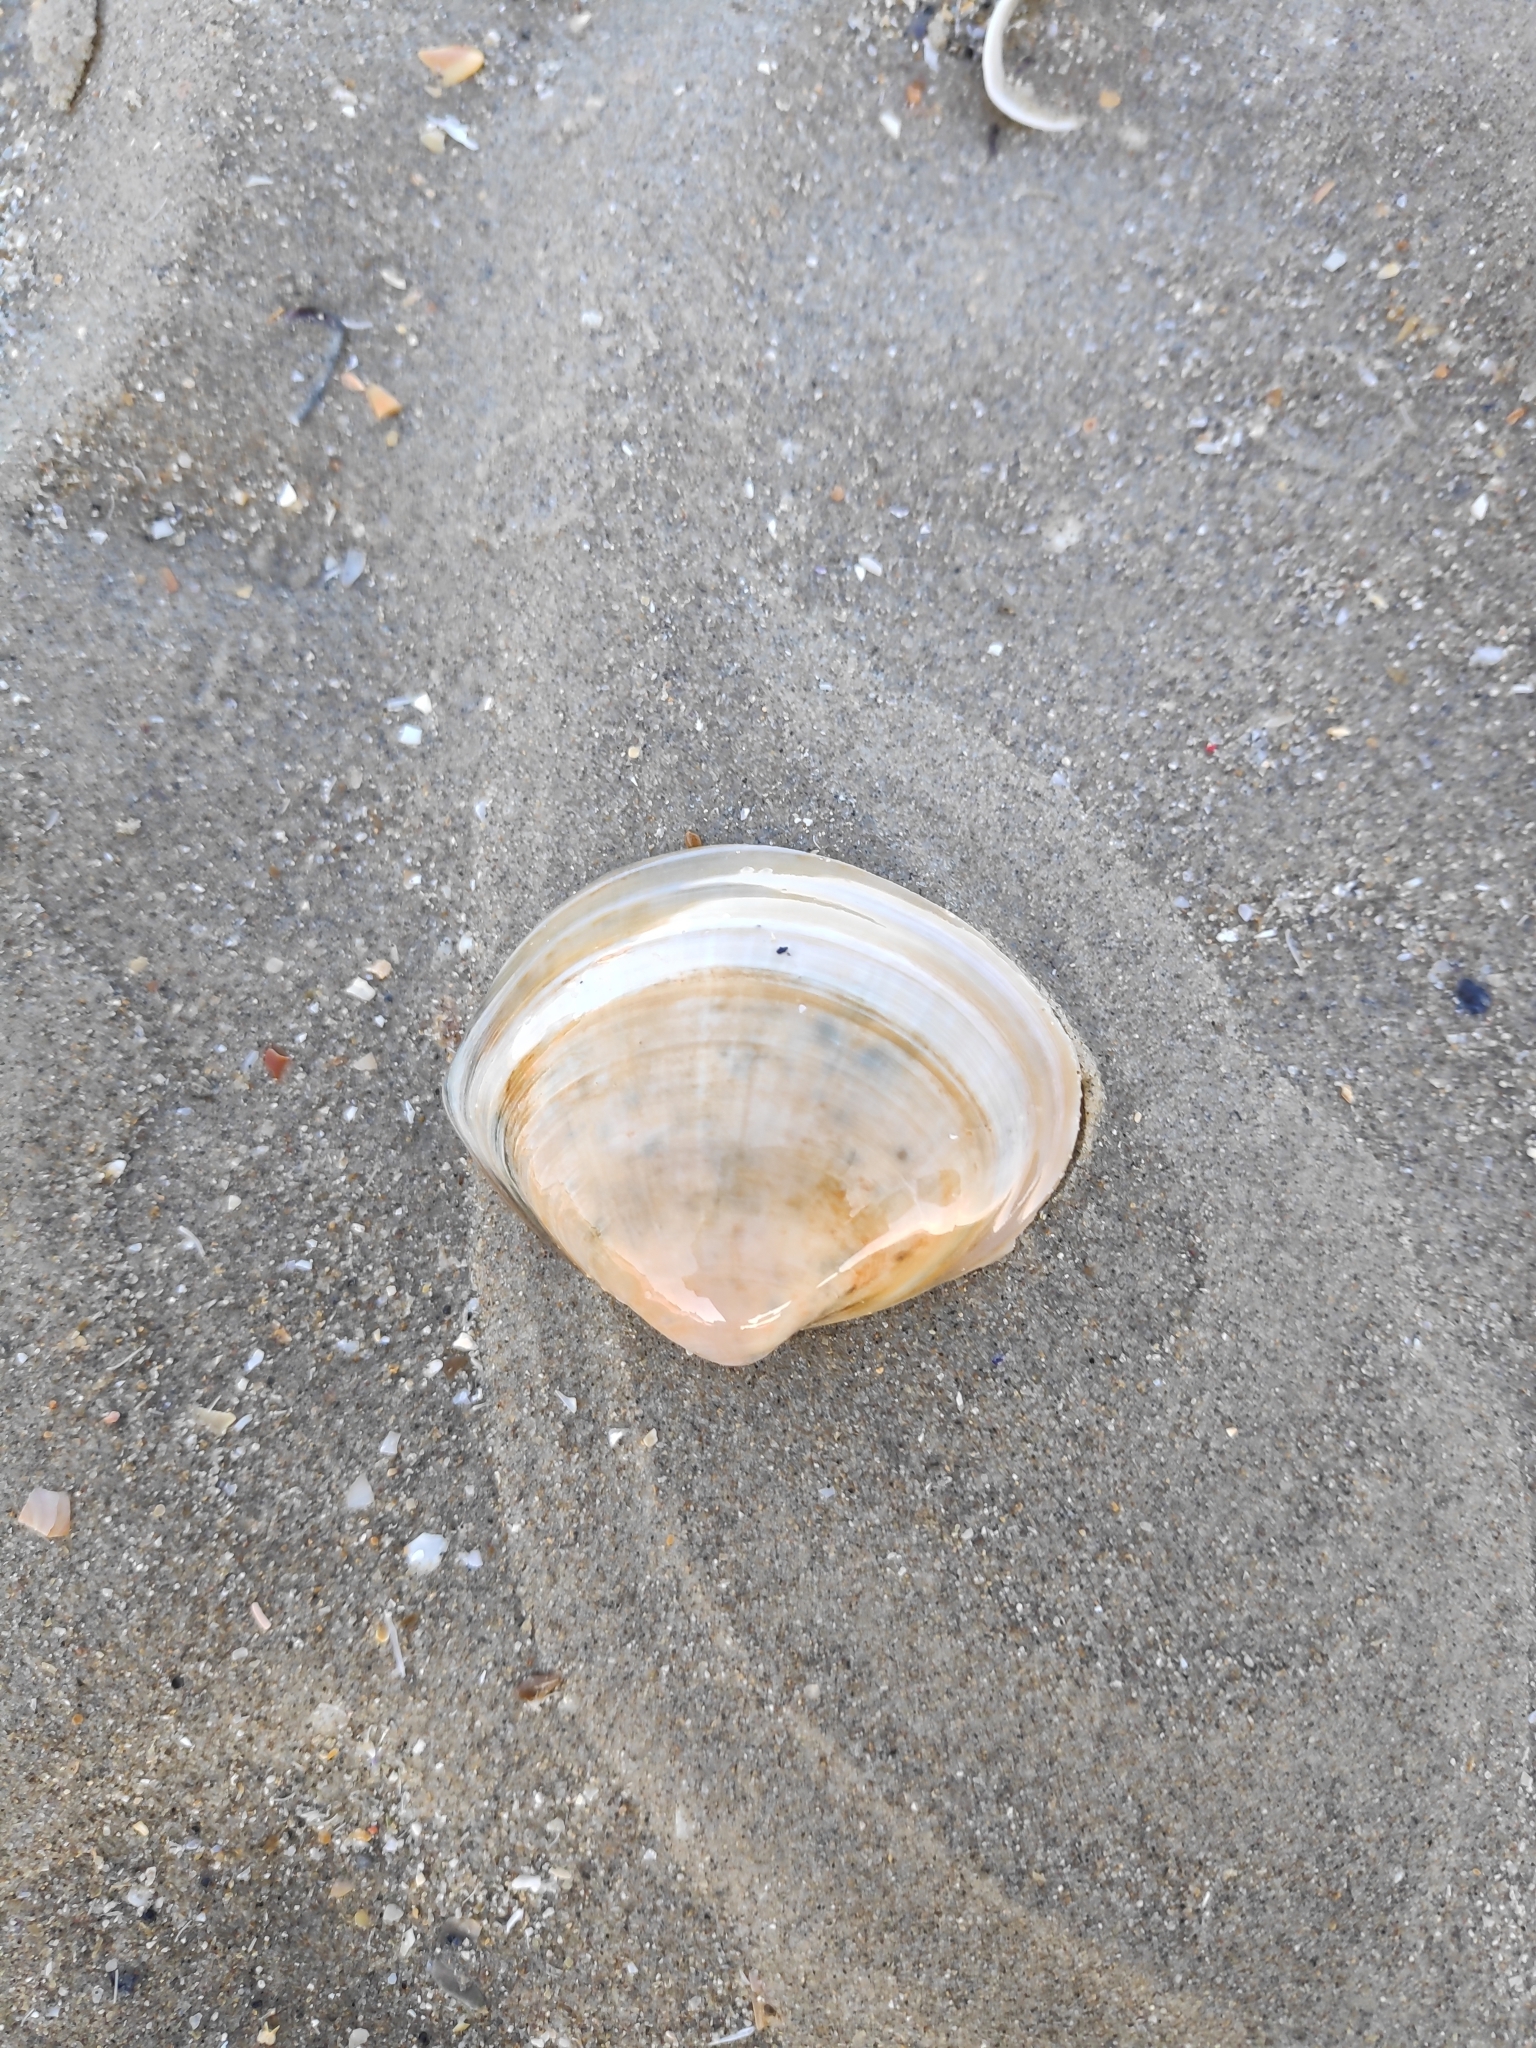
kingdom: Animalia
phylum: Mollusca
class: Bivalvia
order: Venerida
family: Mactridae
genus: Mactra
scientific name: Mactra stultorum
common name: Rayed trough shell
